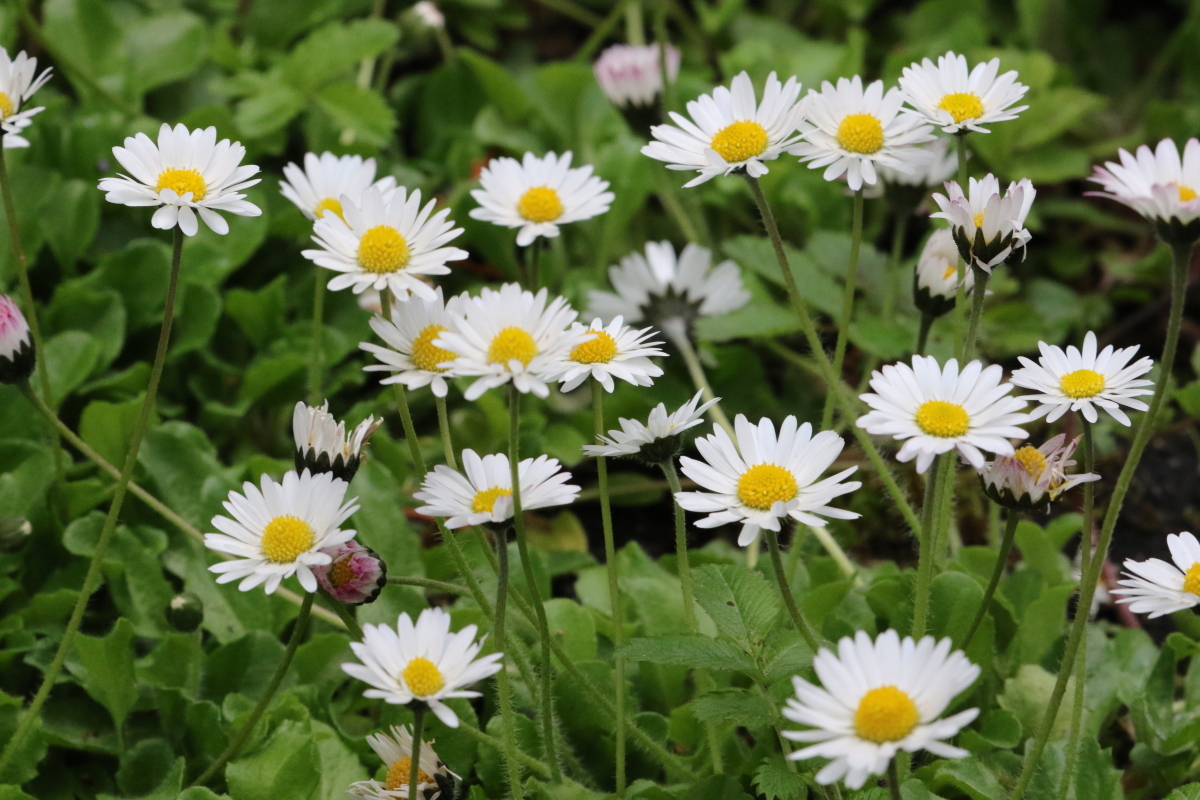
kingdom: Plantae
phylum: Tracheophyta
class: Magnoliopsida
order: Asterales
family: Asteraceae
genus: Bellis
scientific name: Bellis perennis
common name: Lawndaisy
